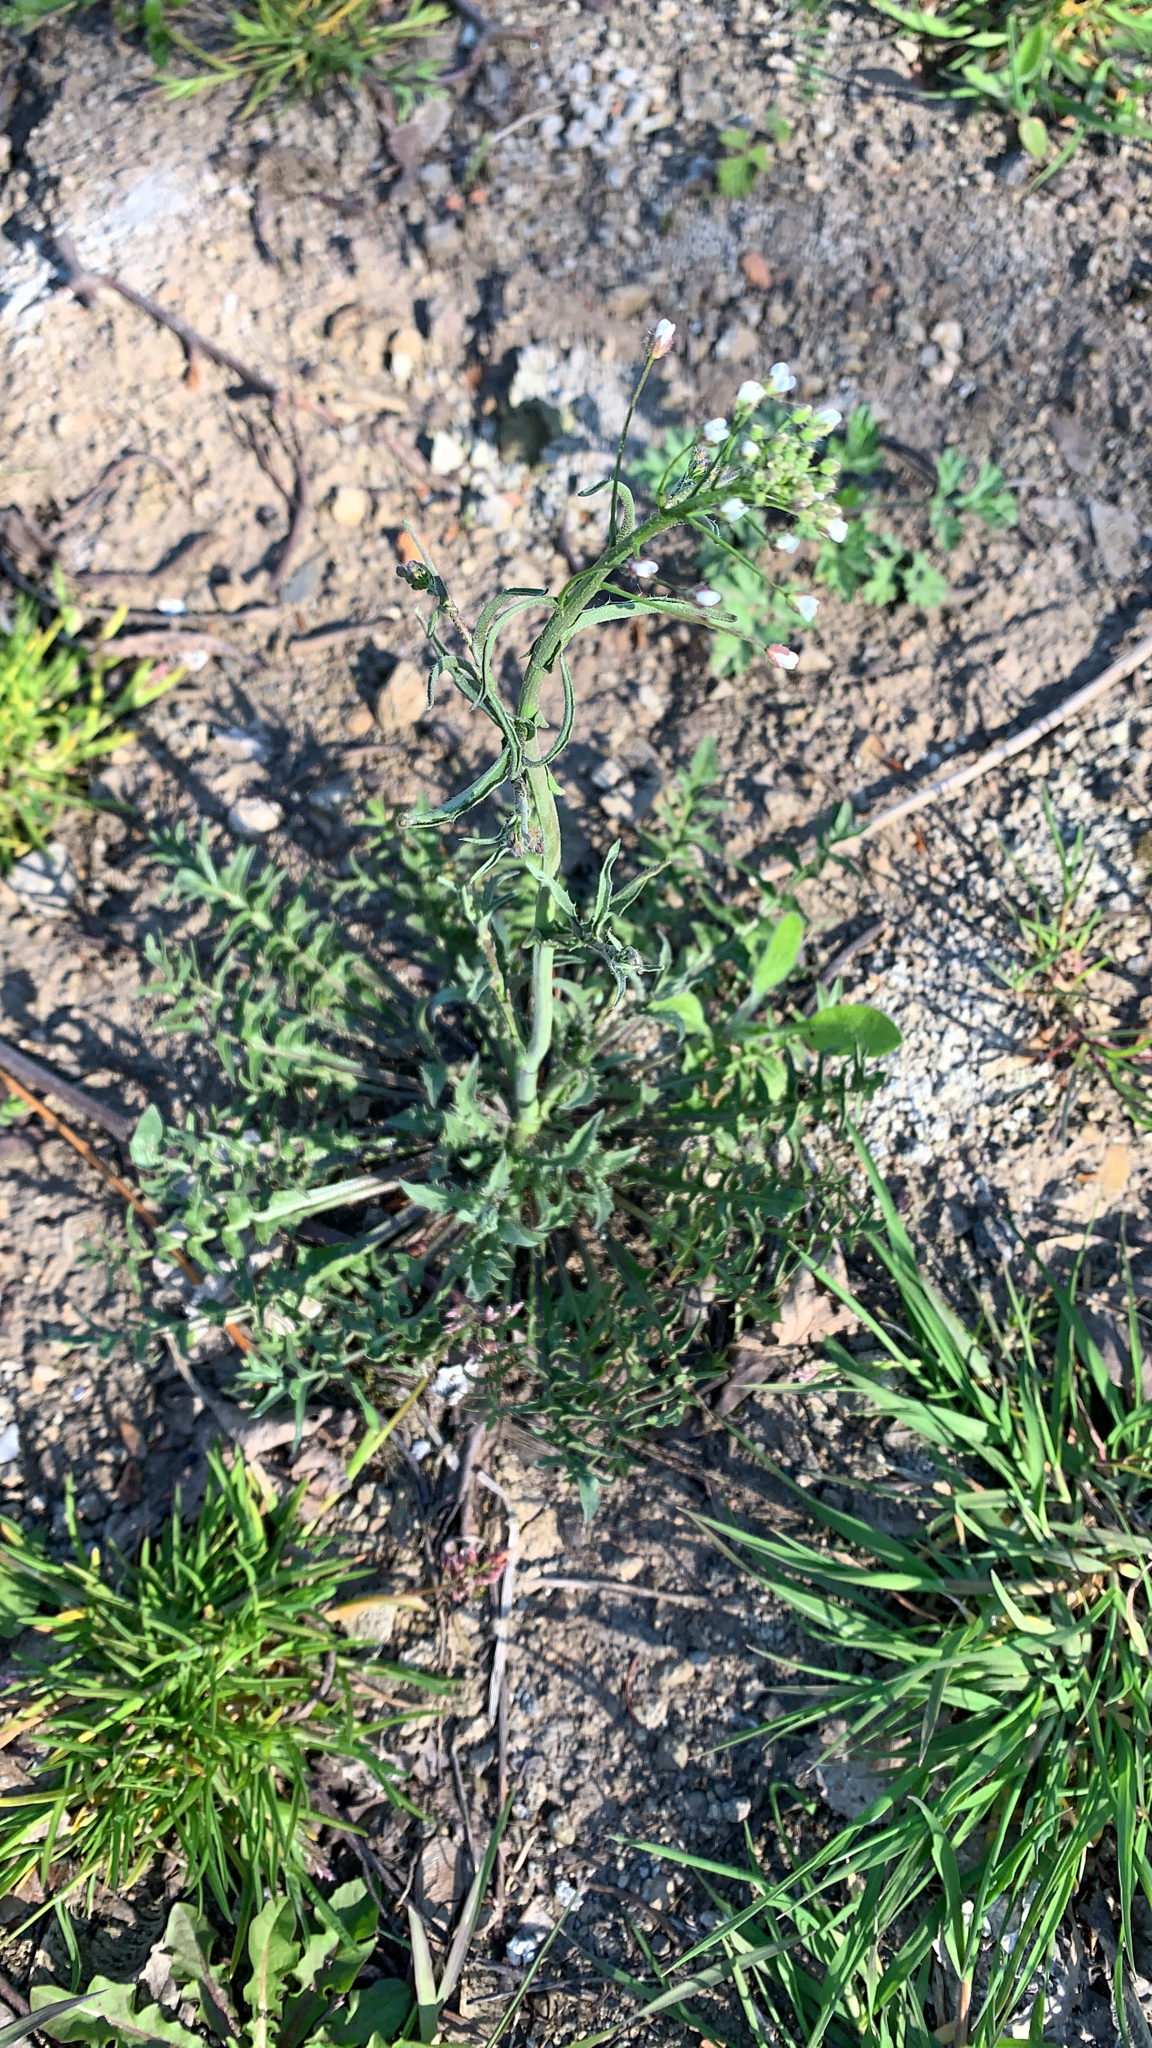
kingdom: Plantae
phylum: Tracheophyta
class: Magnoliopsida
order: Brassicales
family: Brassicaceae
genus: Capsella
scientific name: Capsella bursa-pastoris
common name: Shepherd's purse
